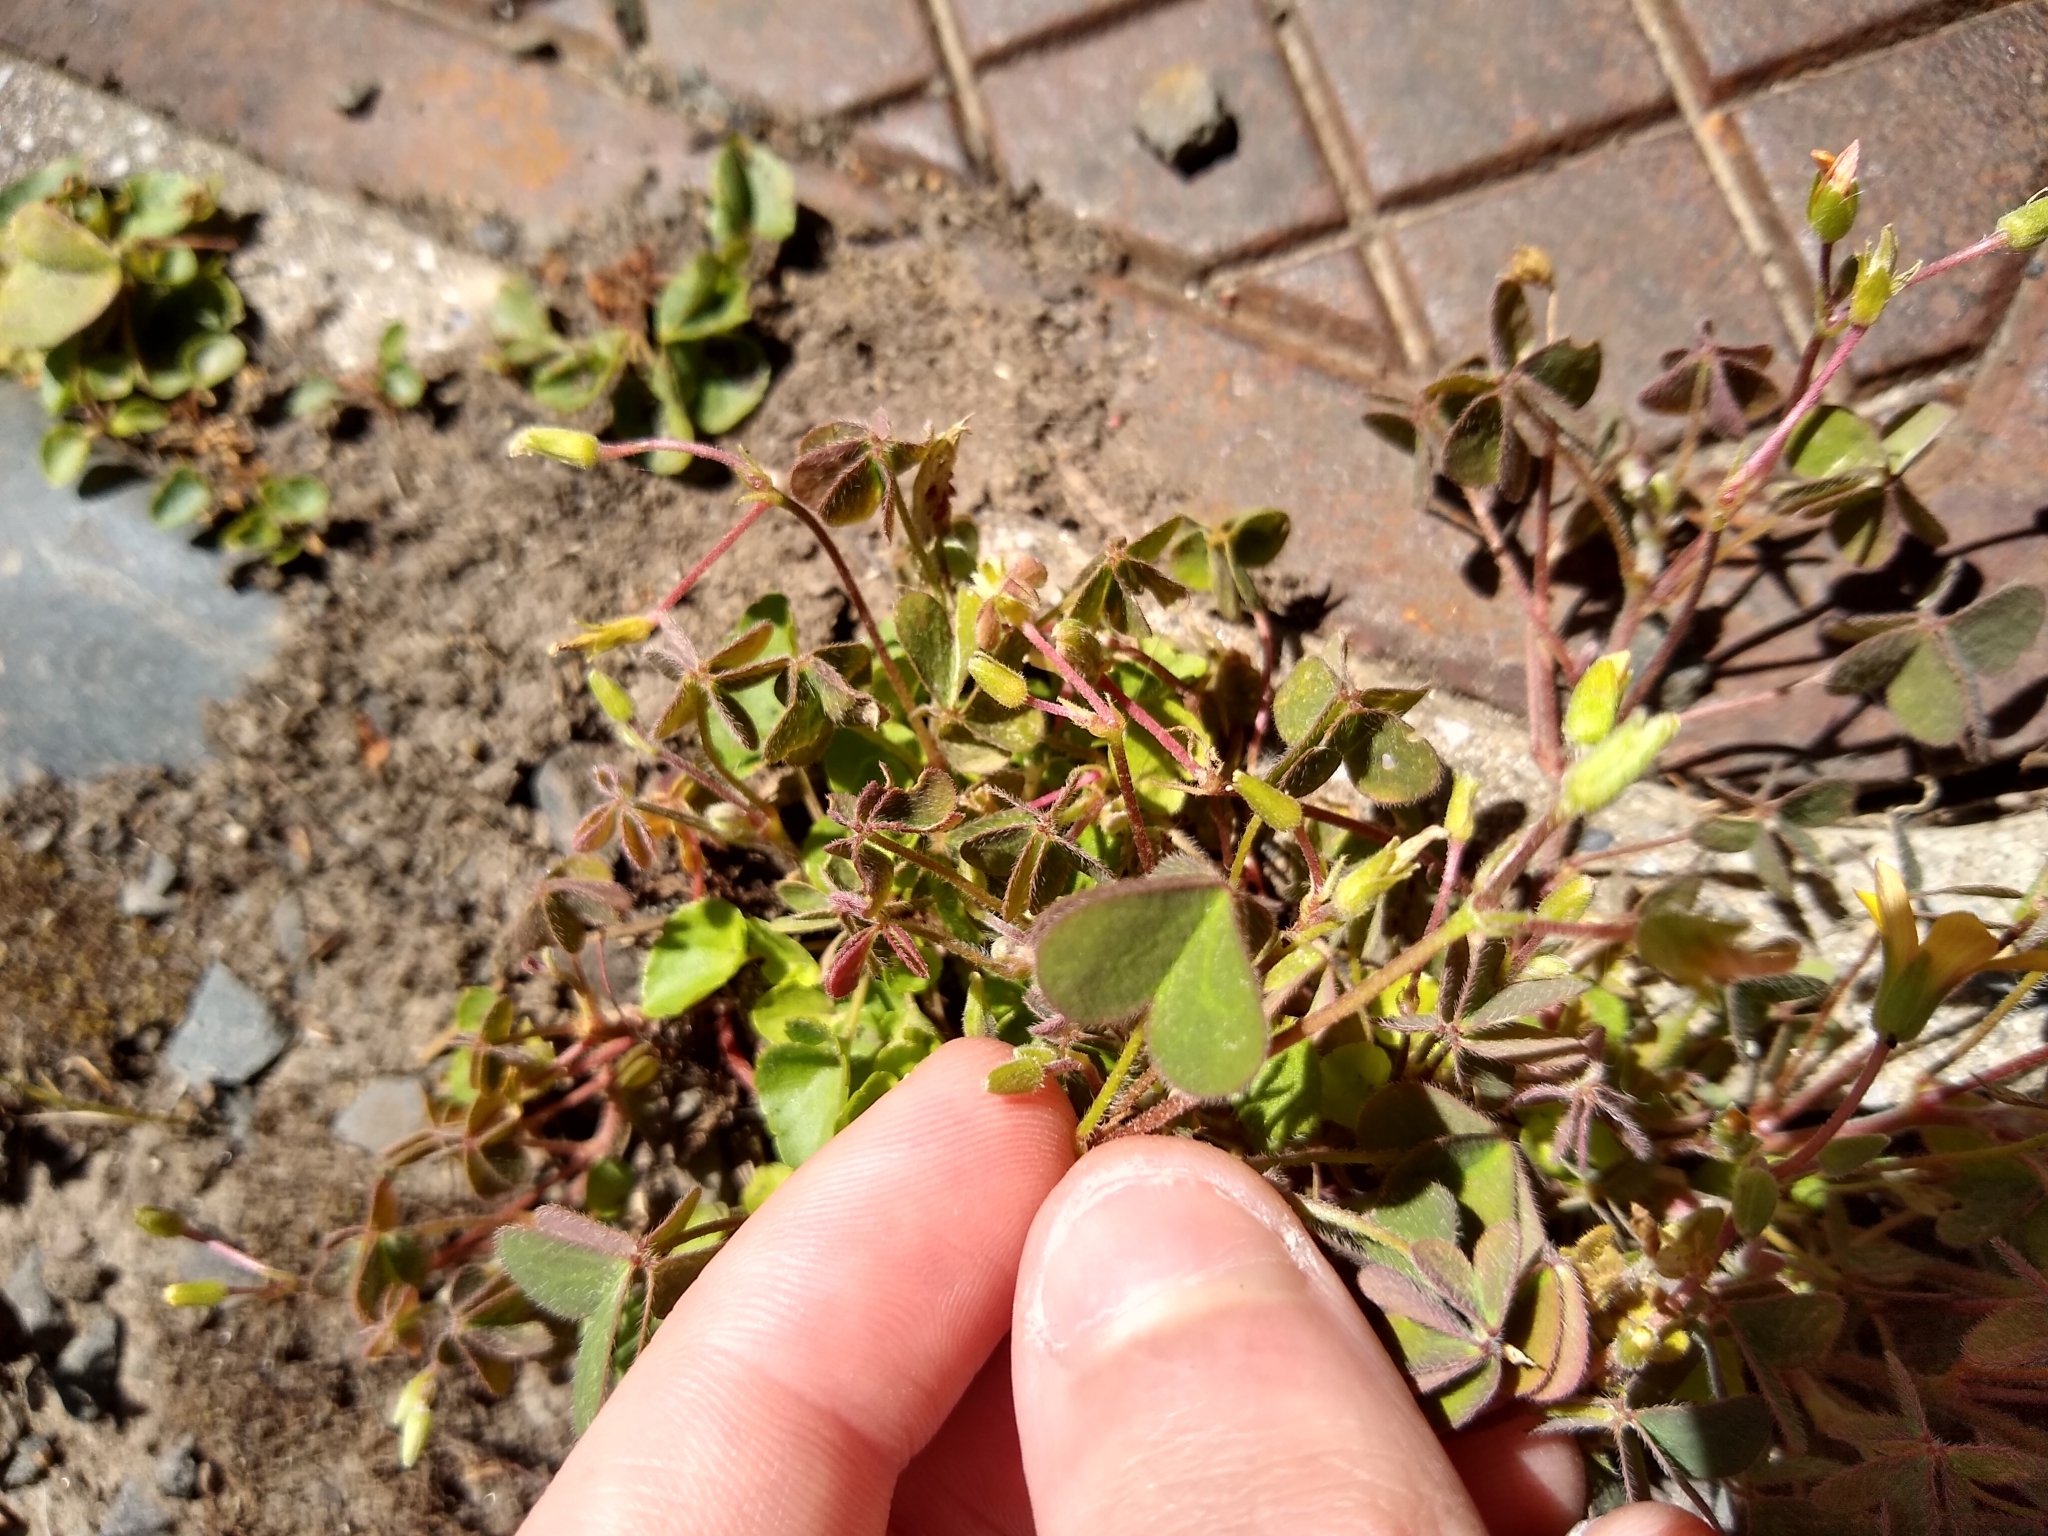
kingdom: Plantae
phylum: Tracheophyta
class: Magnoliopsida
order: Oxalidales
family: Oxalidaceae
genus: Oxalis
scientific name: Oxalis corniculata
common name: Procumbent yellow-sorrel
